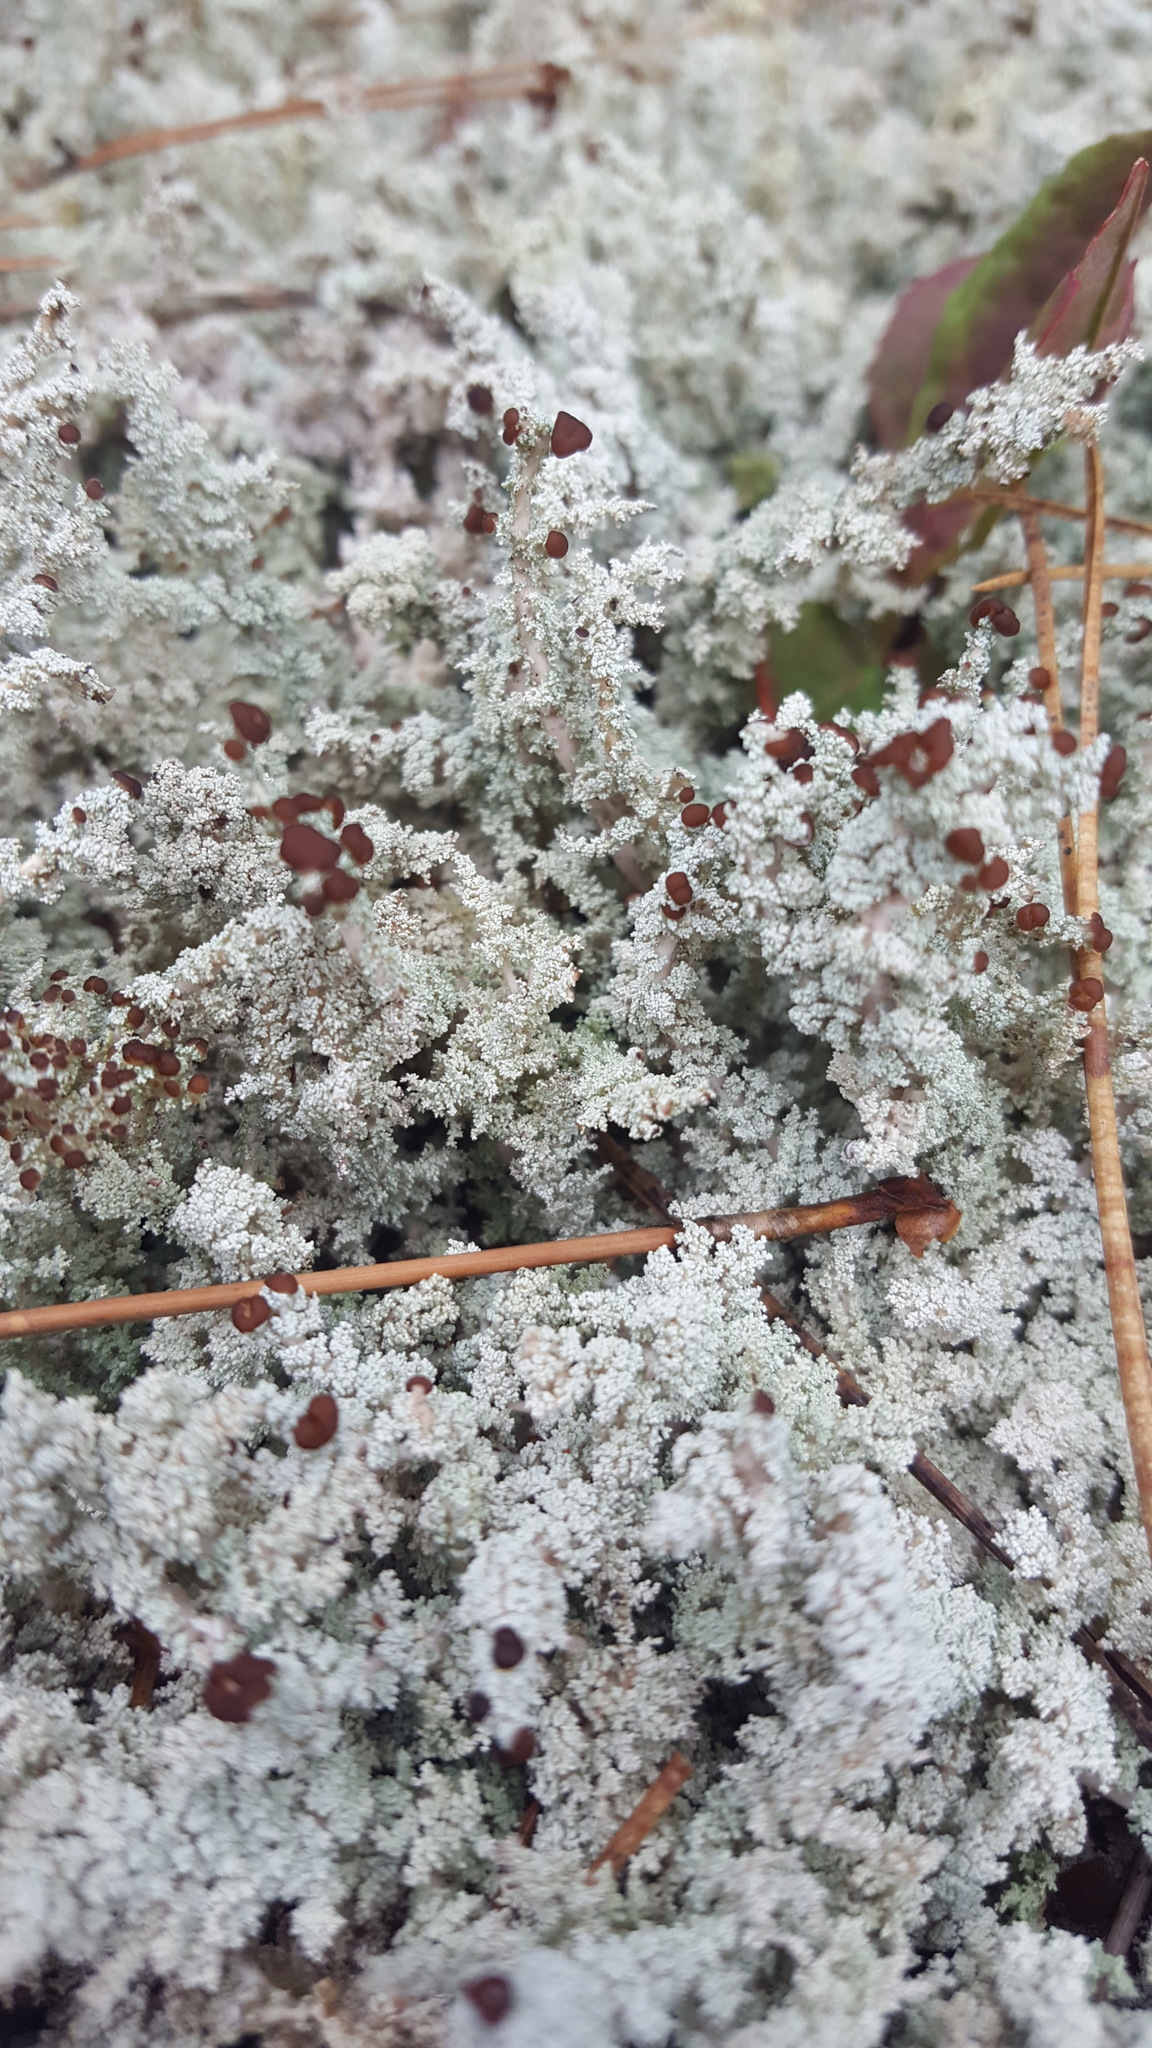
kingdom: Fungi
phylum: Ascomycota
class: Lecanoromycetes
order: Lecanorales
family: Stereocaulaceae
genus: Stereocaulon
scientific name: Stereocaulon saxatile
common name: Rock foam
